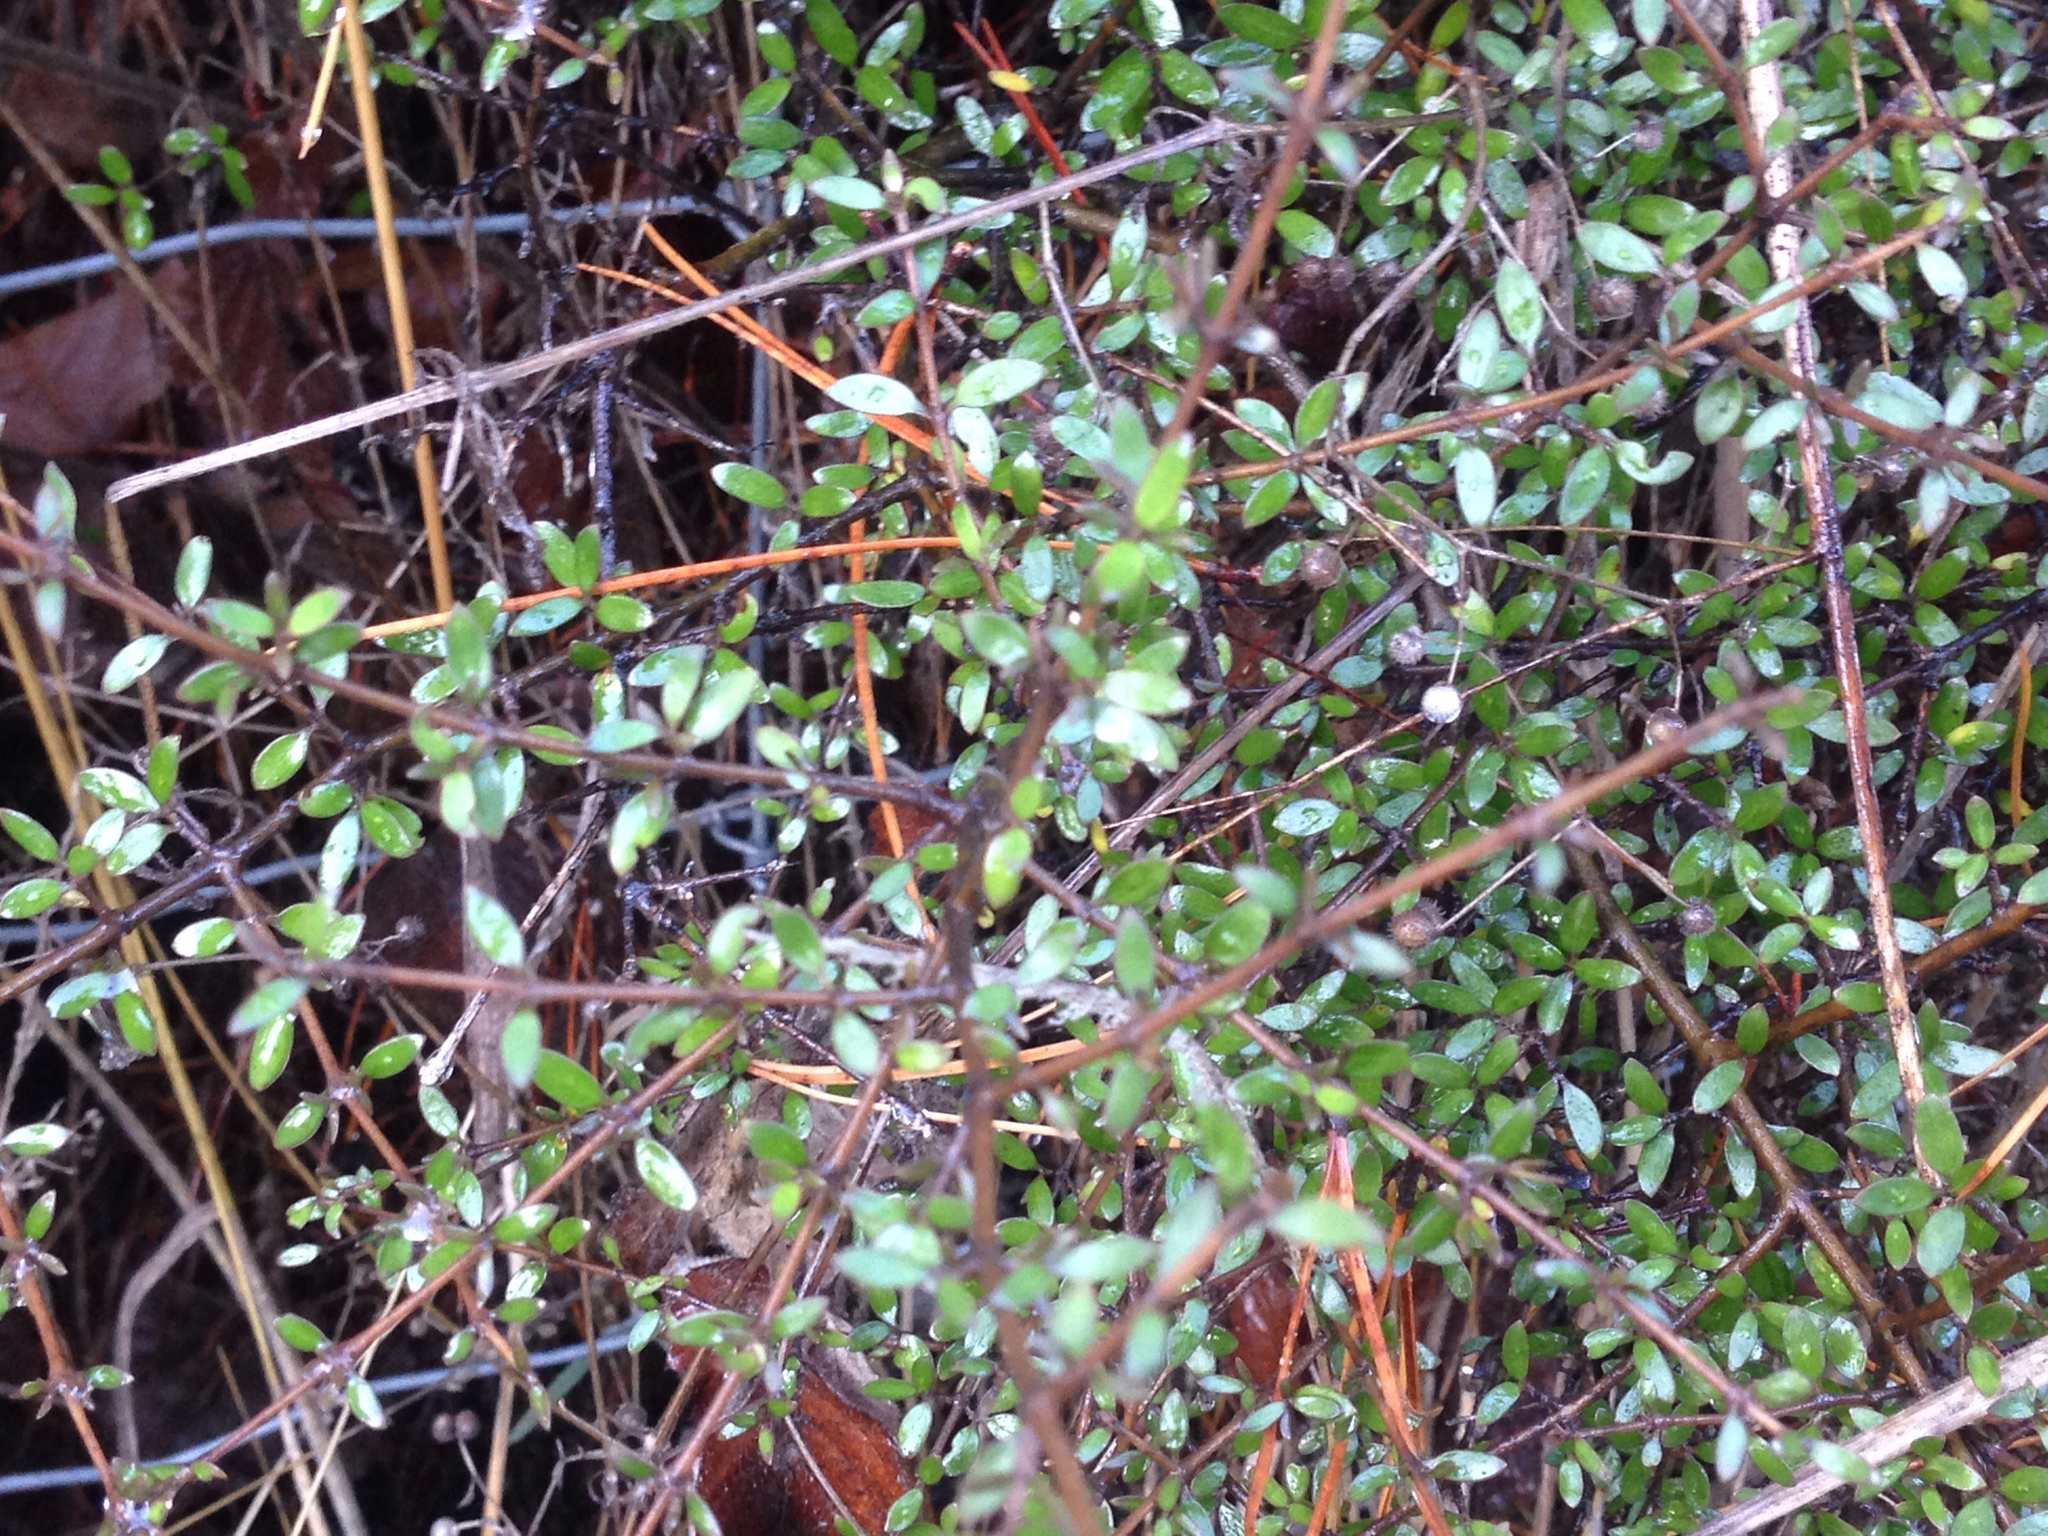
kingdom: Plantae
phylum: Tracheophyta
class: Magnoliopsida
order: Gentianales
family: Rubiaceae
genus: Coprosma
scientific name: Coprosma propinqua
